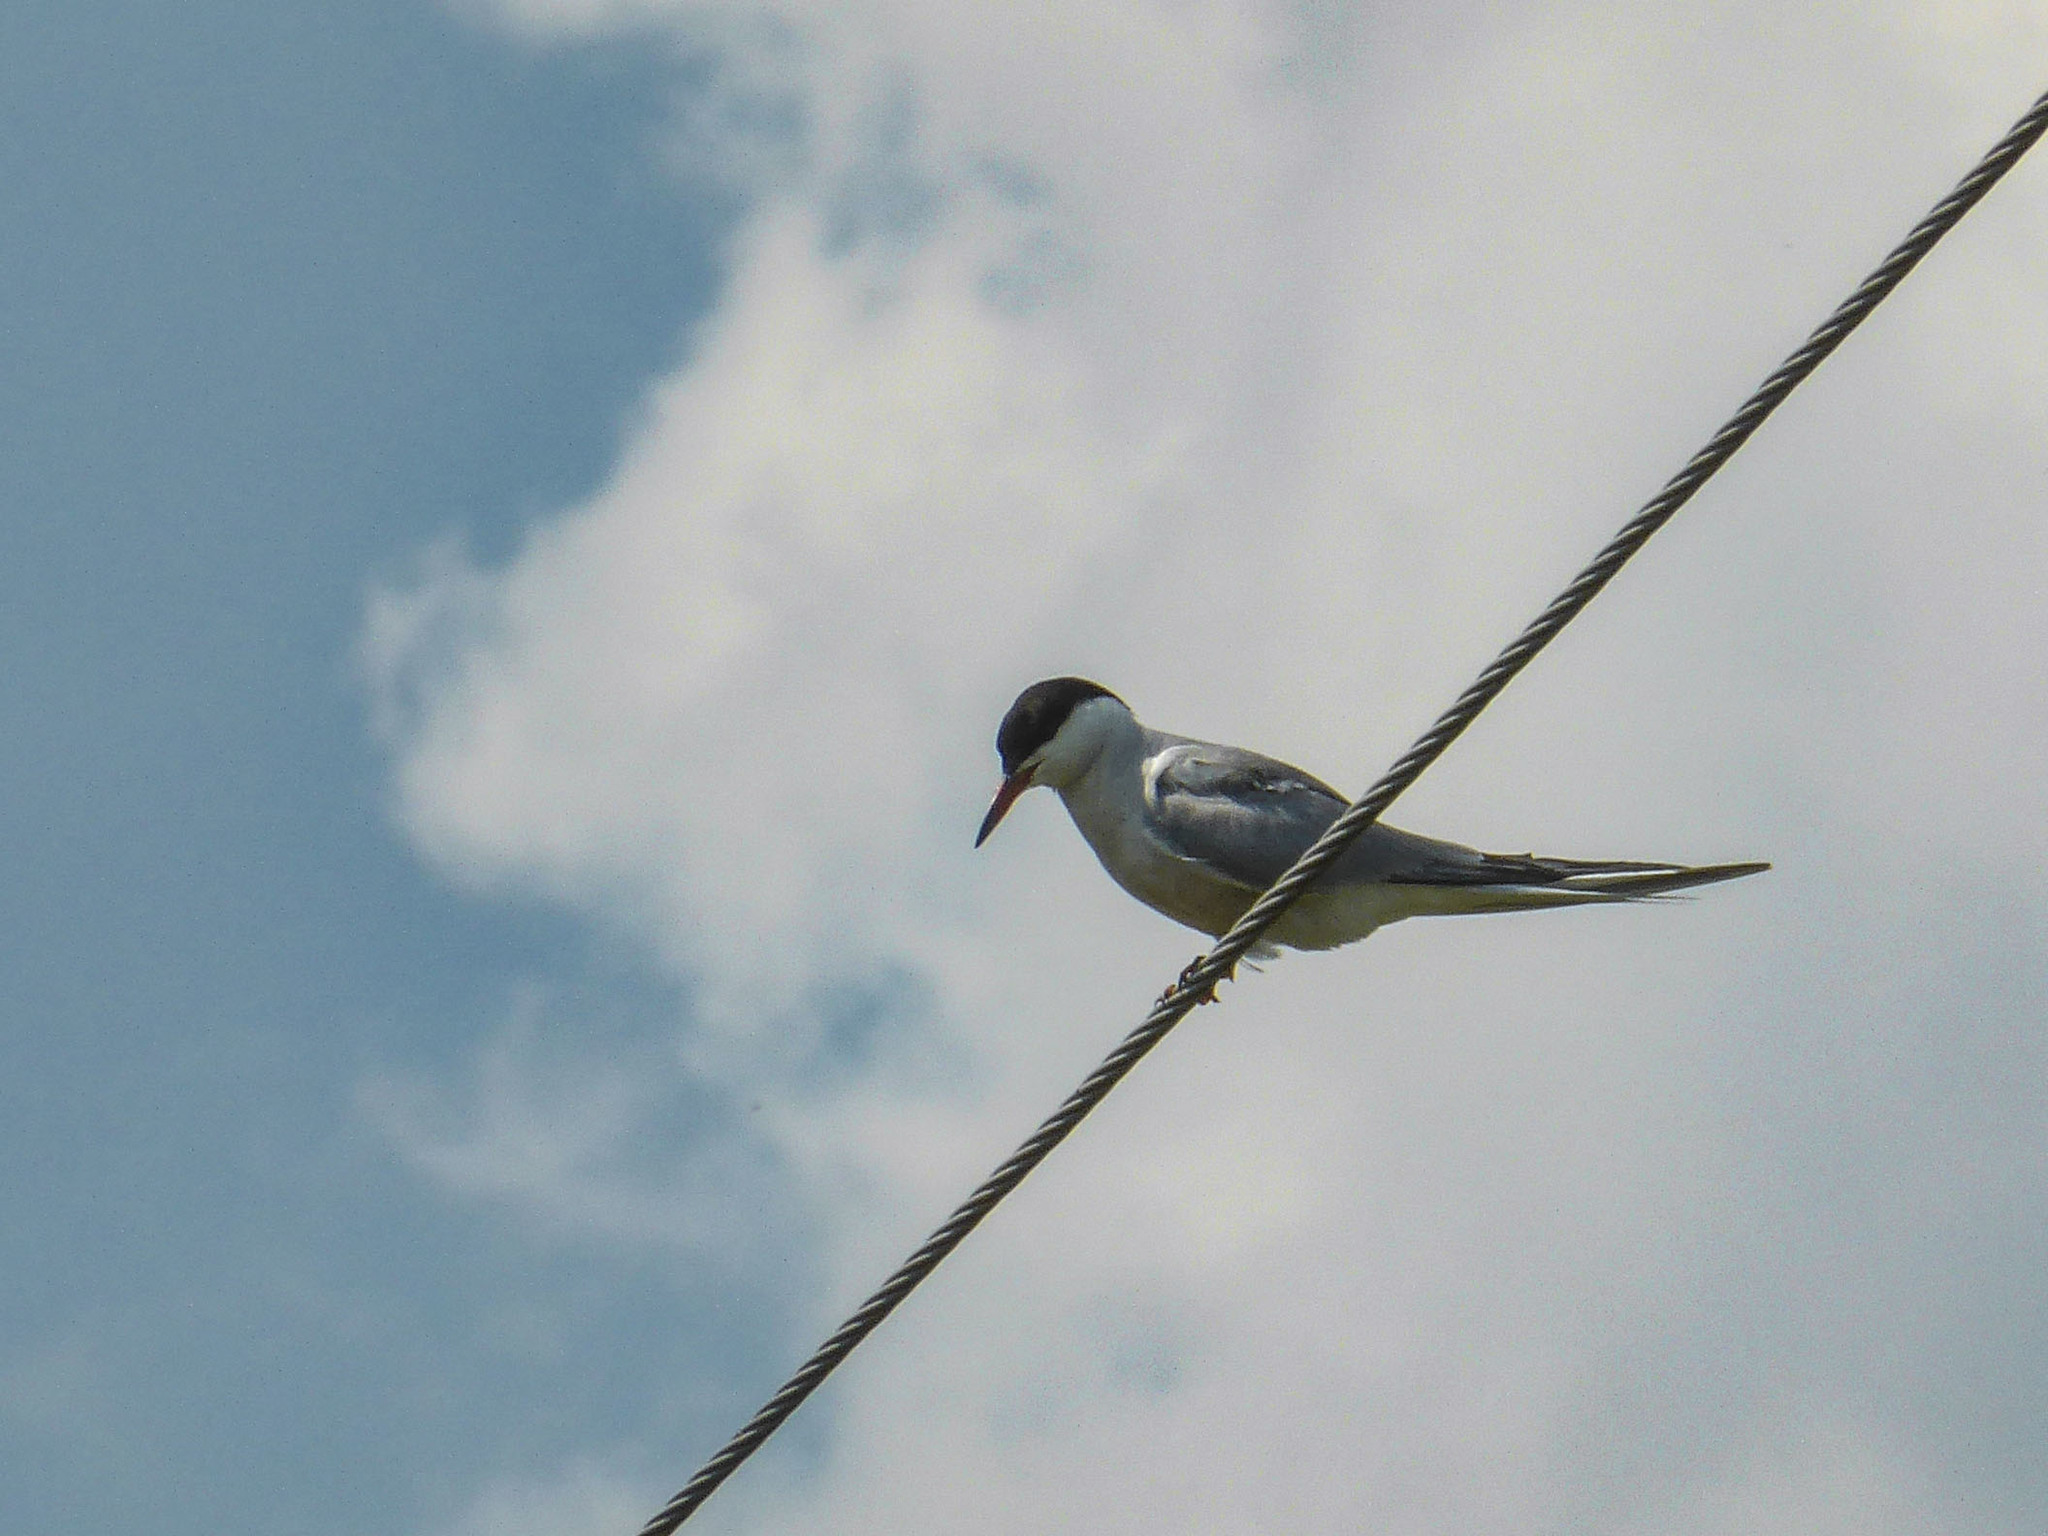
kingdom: Animalia
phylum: Chordata
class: Aves
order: Charadriiformes
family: Laridae
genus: Sterna
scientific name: Sterna hirundo
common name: Common tern
